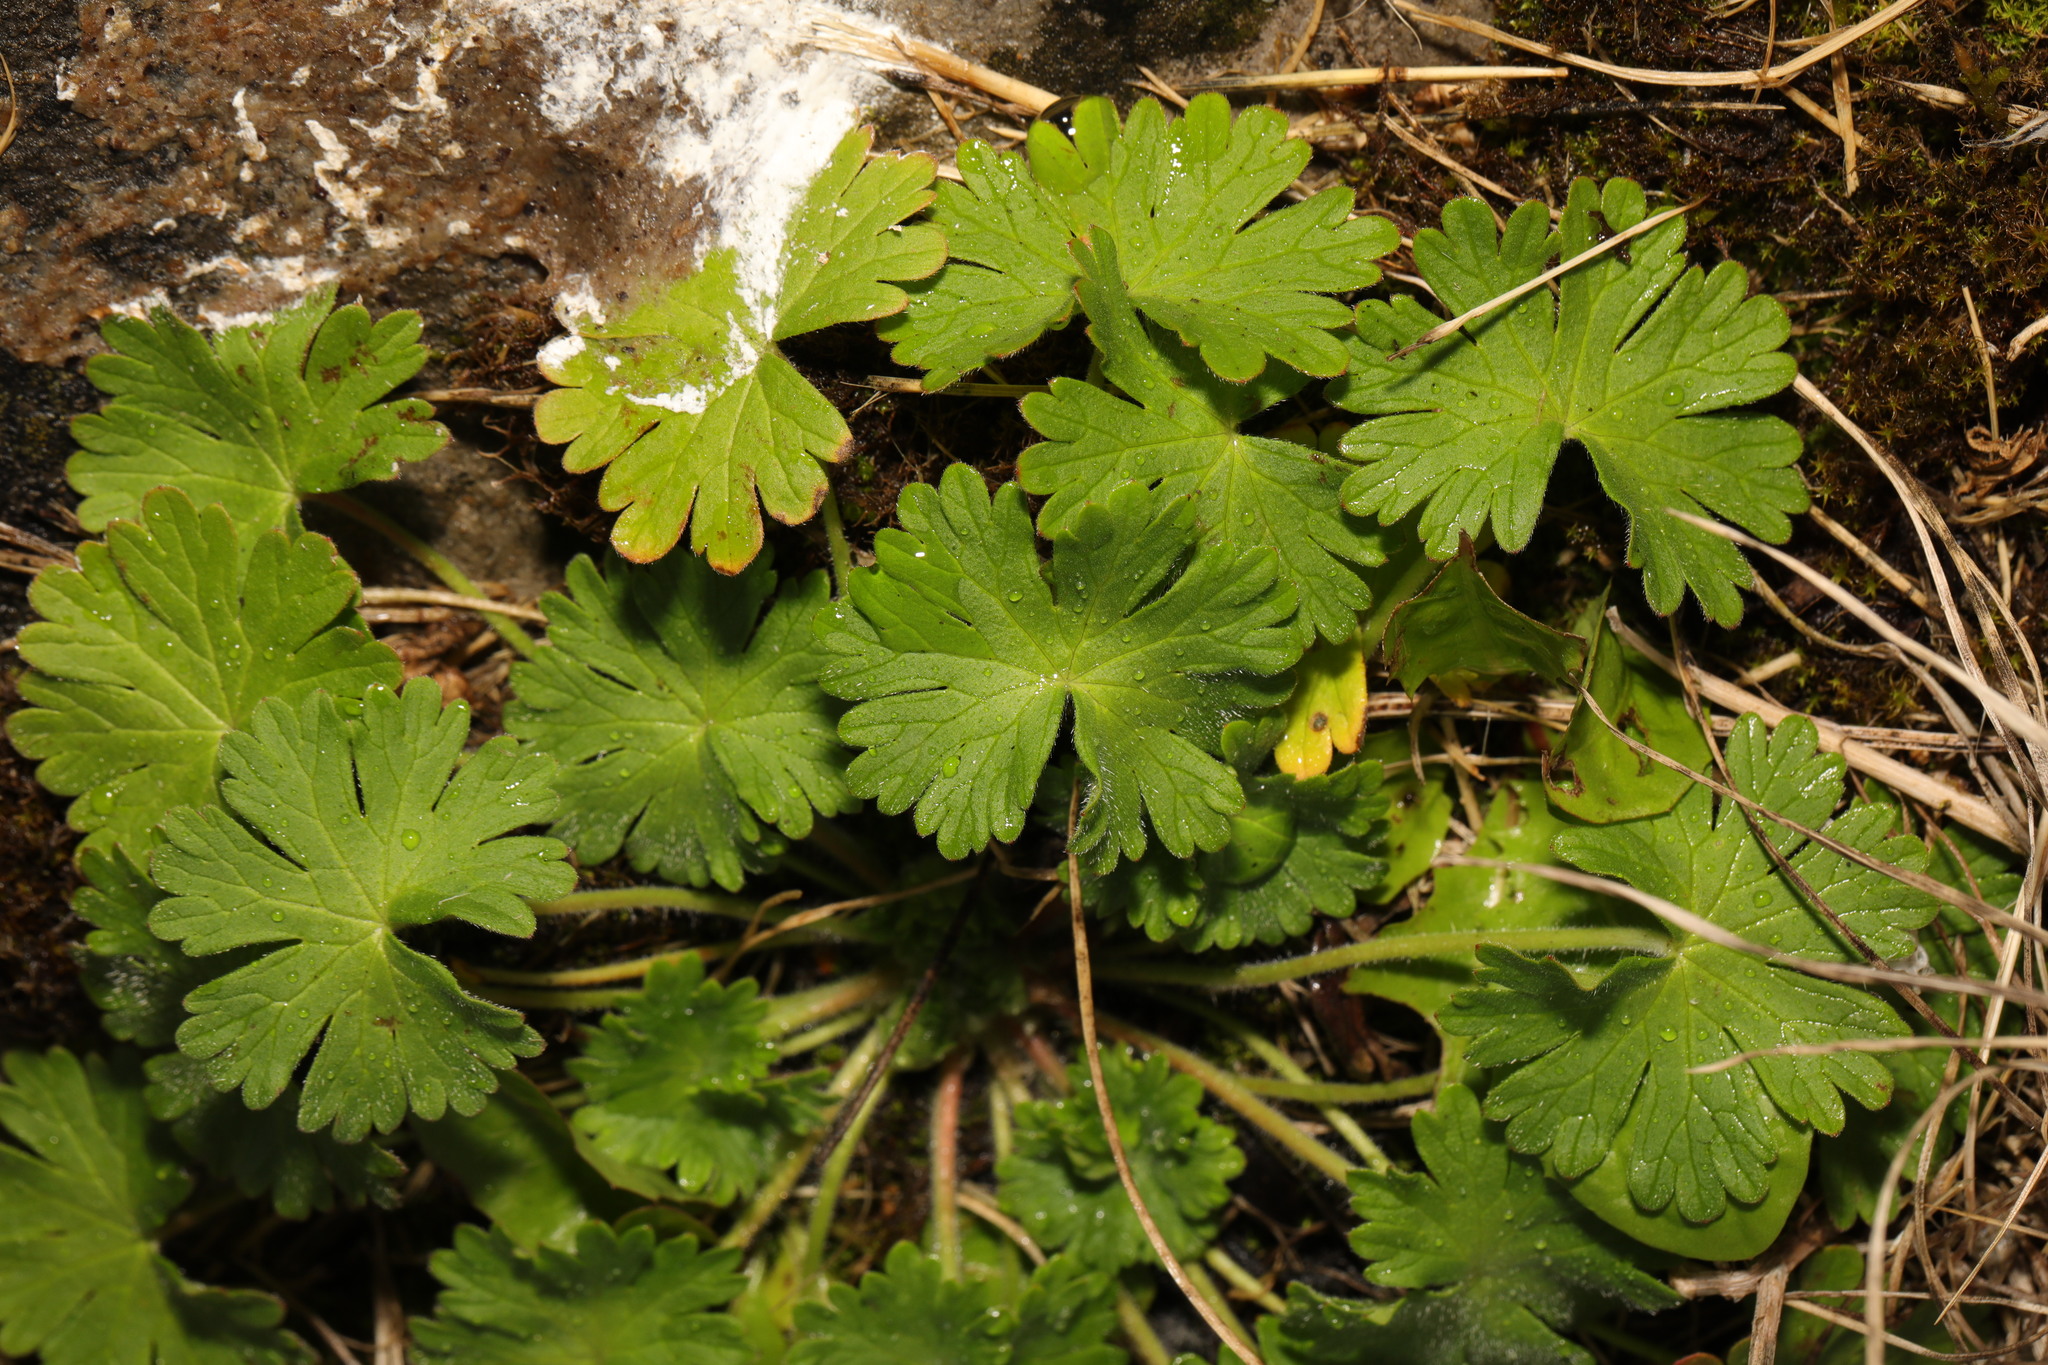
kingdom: Plantae
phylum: Tracheophyta
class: Magnoliopsida
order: Geraniales
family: Geraniaceae
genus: Geranium
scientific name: Geranium molle
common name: Dove's-foot crane's-bill
